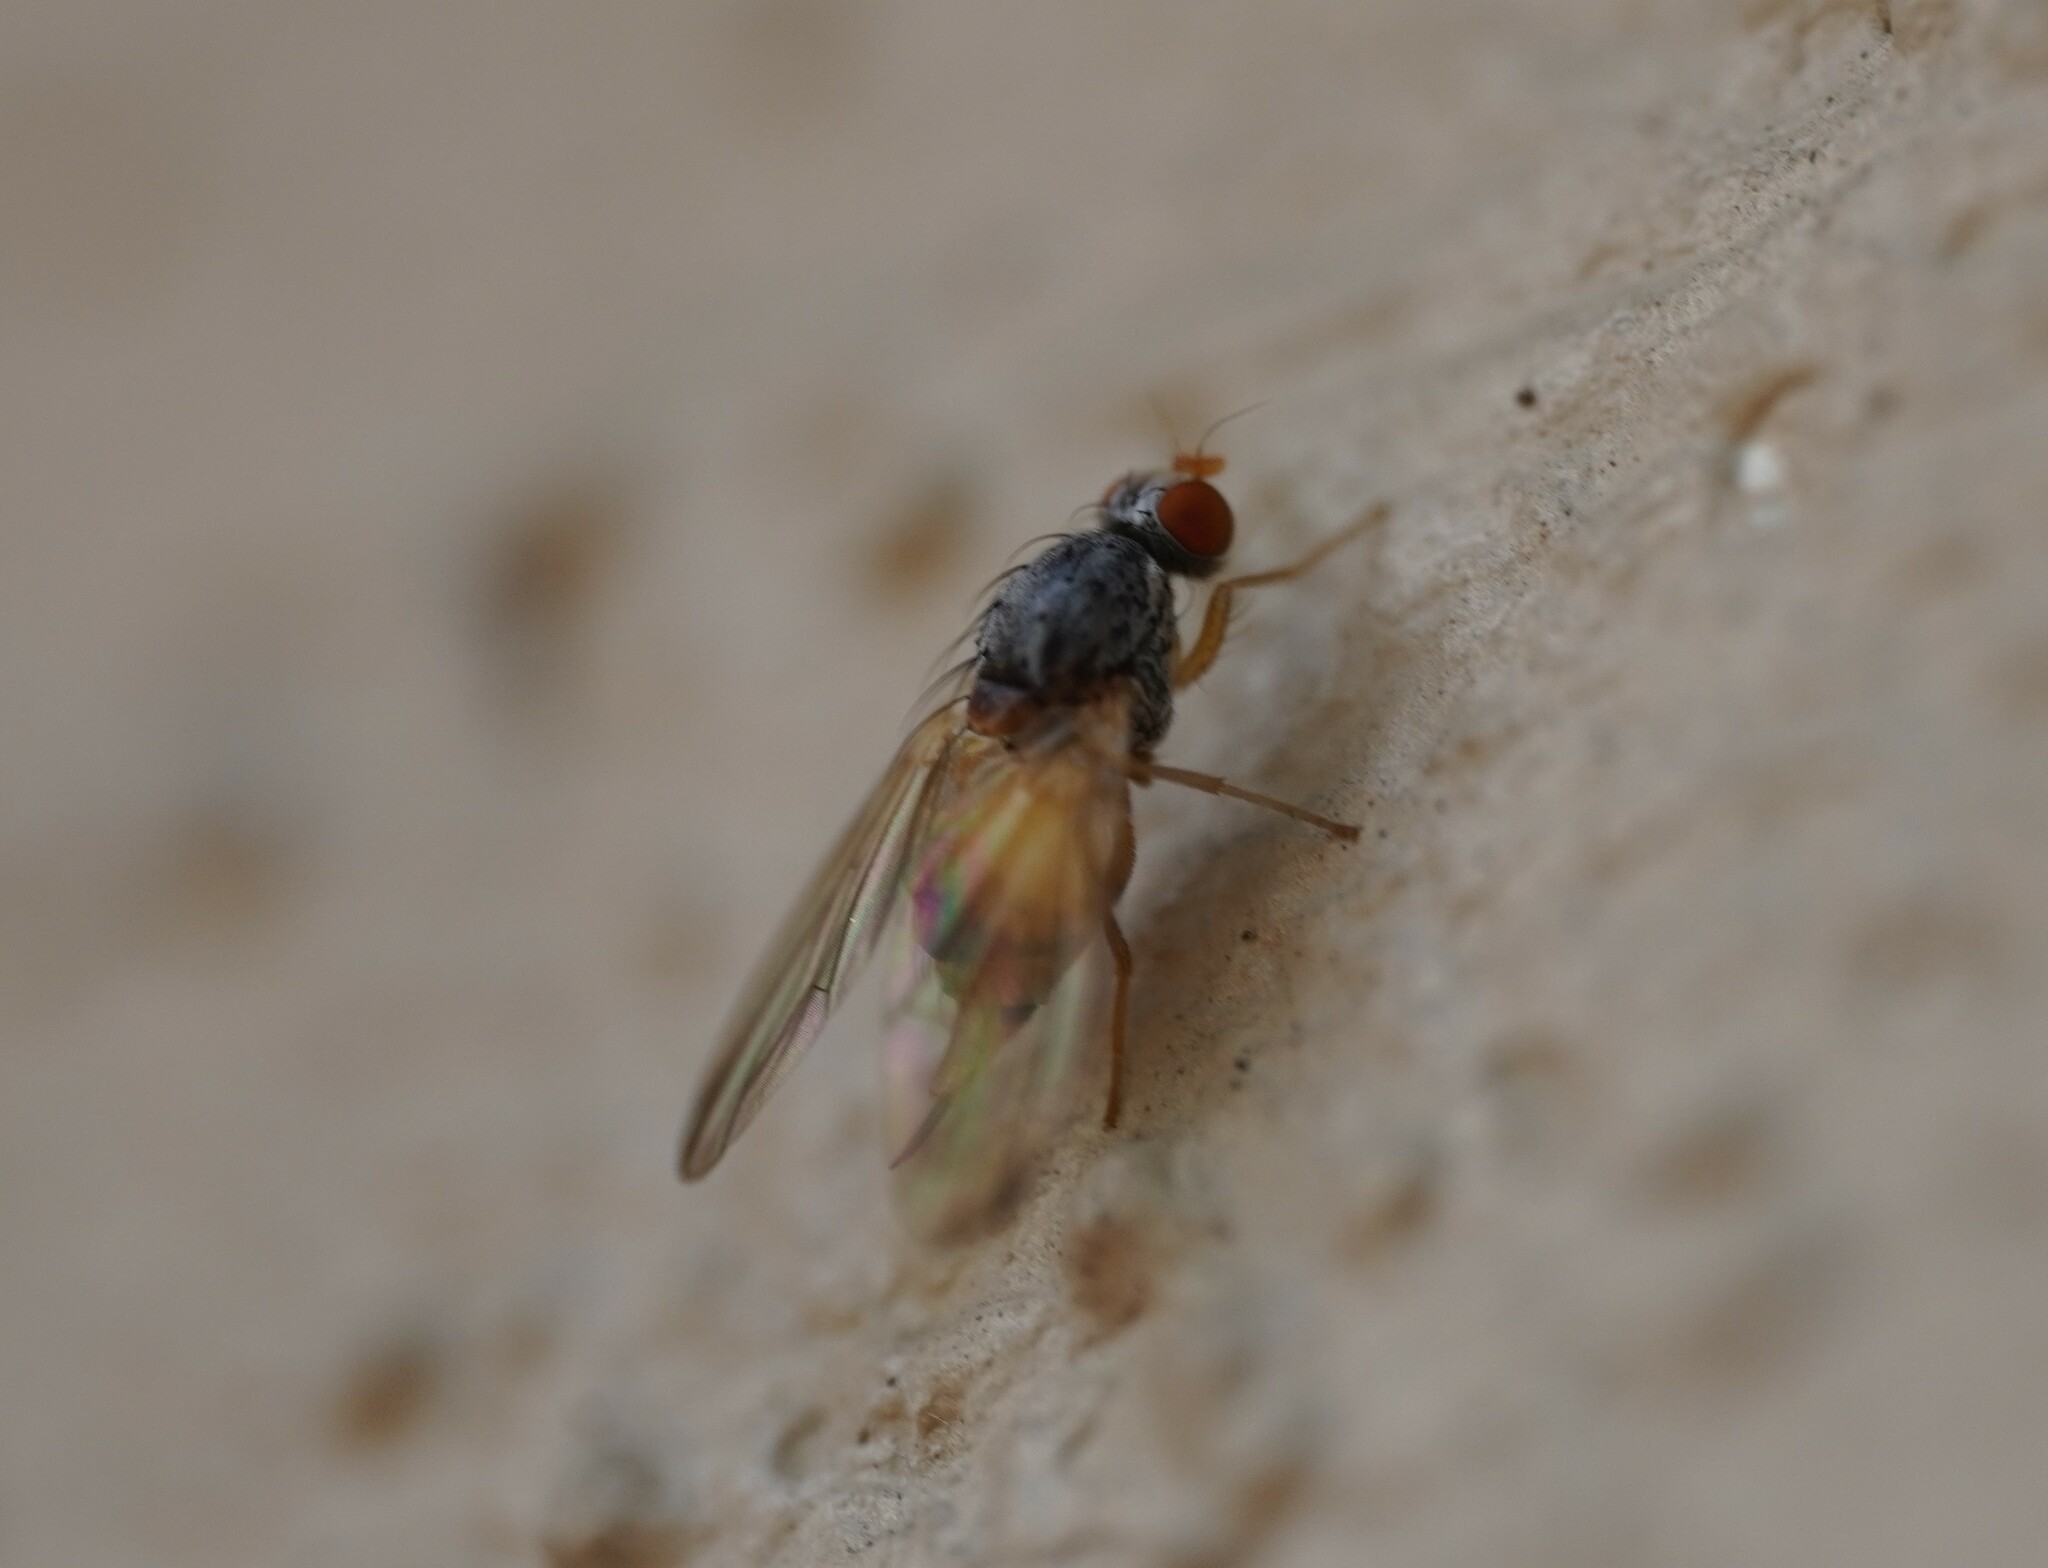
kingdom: Animalia
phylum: Arthropoda
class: Insecta
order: Diptera
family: Pallopteridae
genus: Palloptera
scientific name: Palloptera
